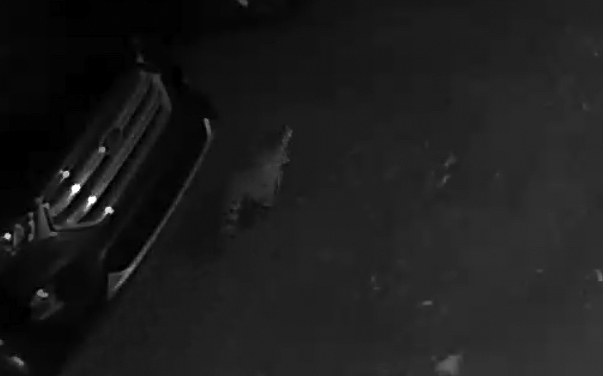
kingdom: Animalia
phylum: Chordata
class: Mammalia
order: Carnivora
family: Procyonidae
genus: Procyon
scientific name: Procyon lotor
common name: Raccoon
